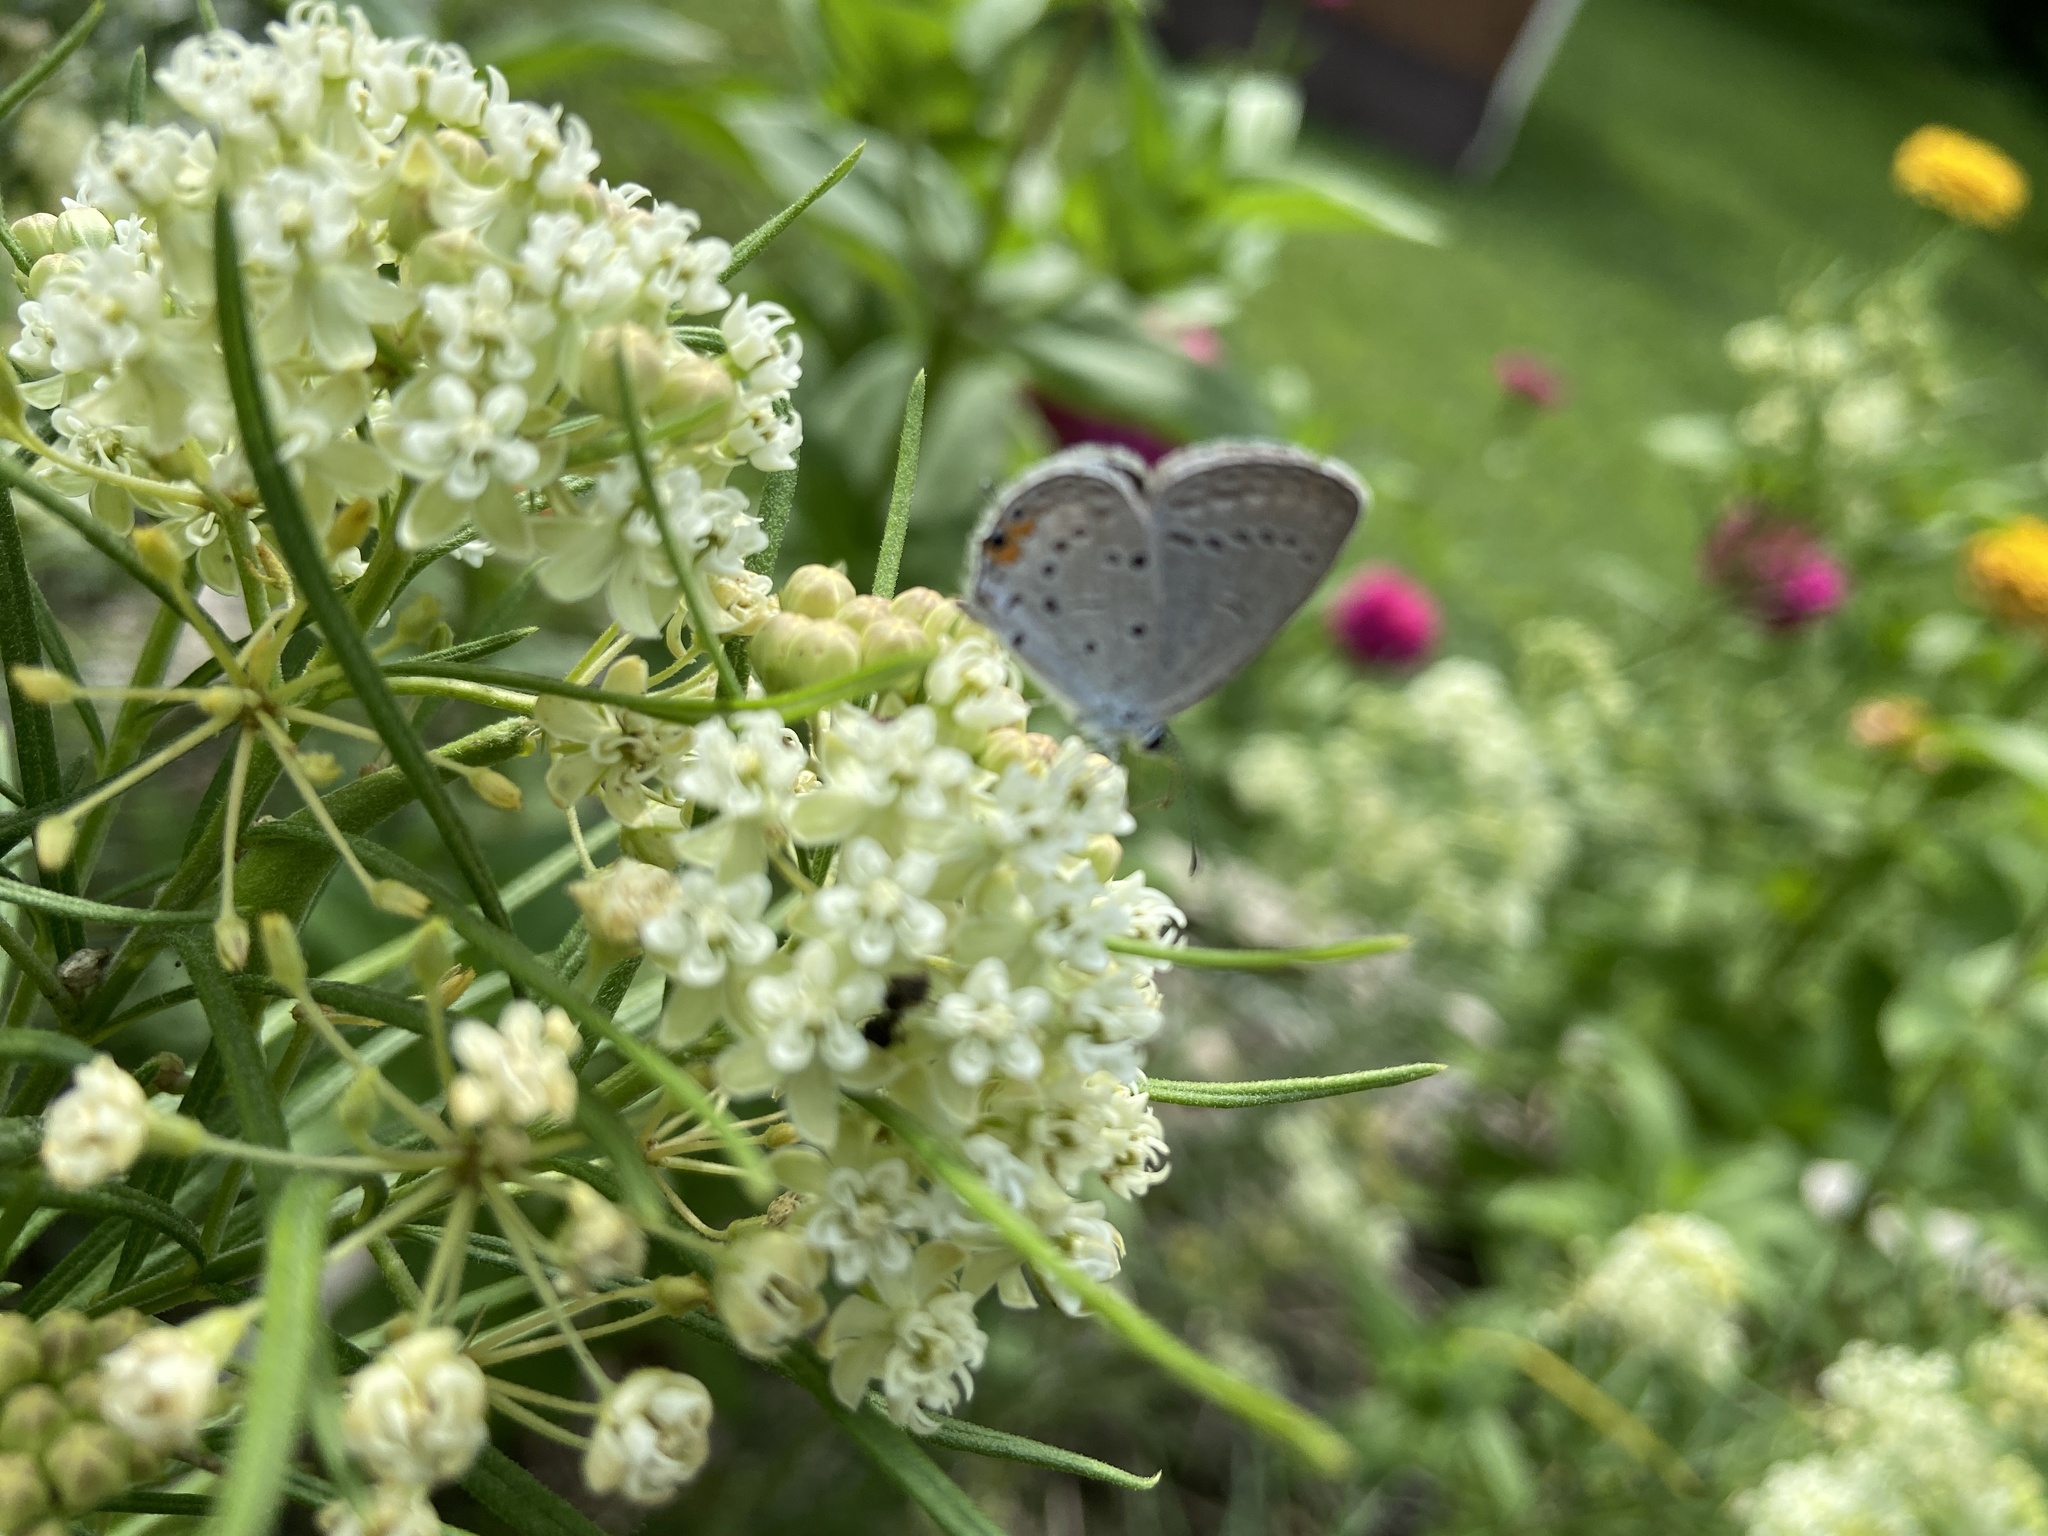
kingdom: Animalia
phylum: Arthropoda
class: Insecta
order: Lepidoptera
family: Lycaenidae
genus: Elkalyce
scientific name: Elkalyce comyntas
